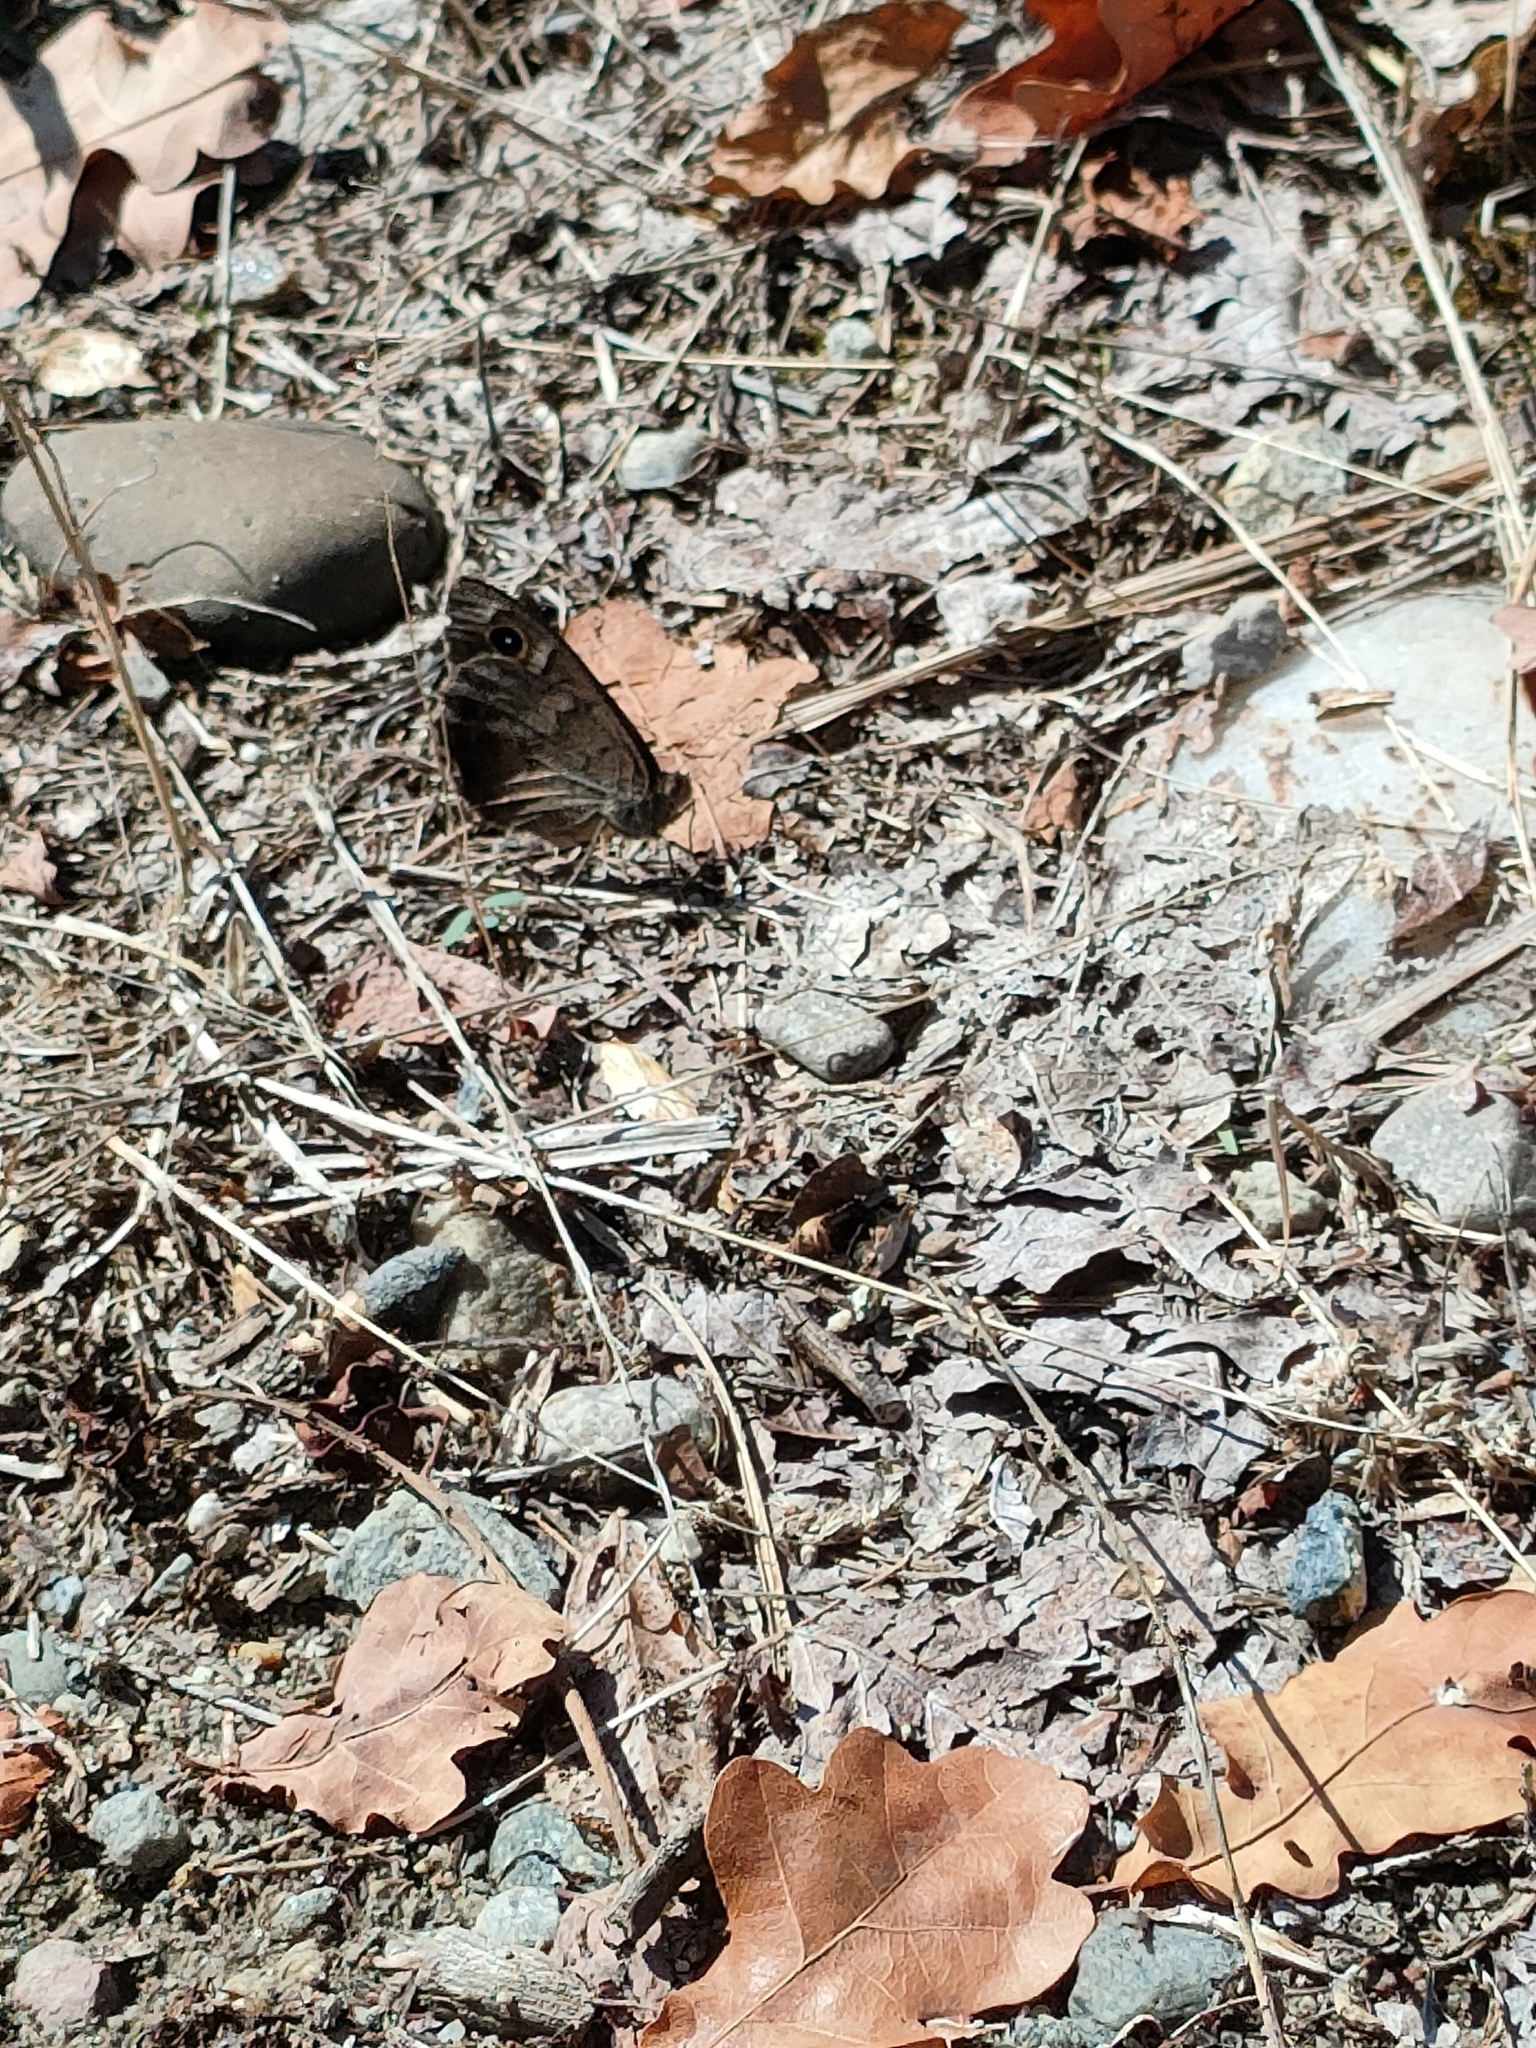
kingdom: Animalia
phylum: Arthropoda
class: Insecta
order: Lepidoptera
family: Nymphalidae
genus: Hipparchia
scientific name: Hipparchia statilinus
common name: Tree grayling
